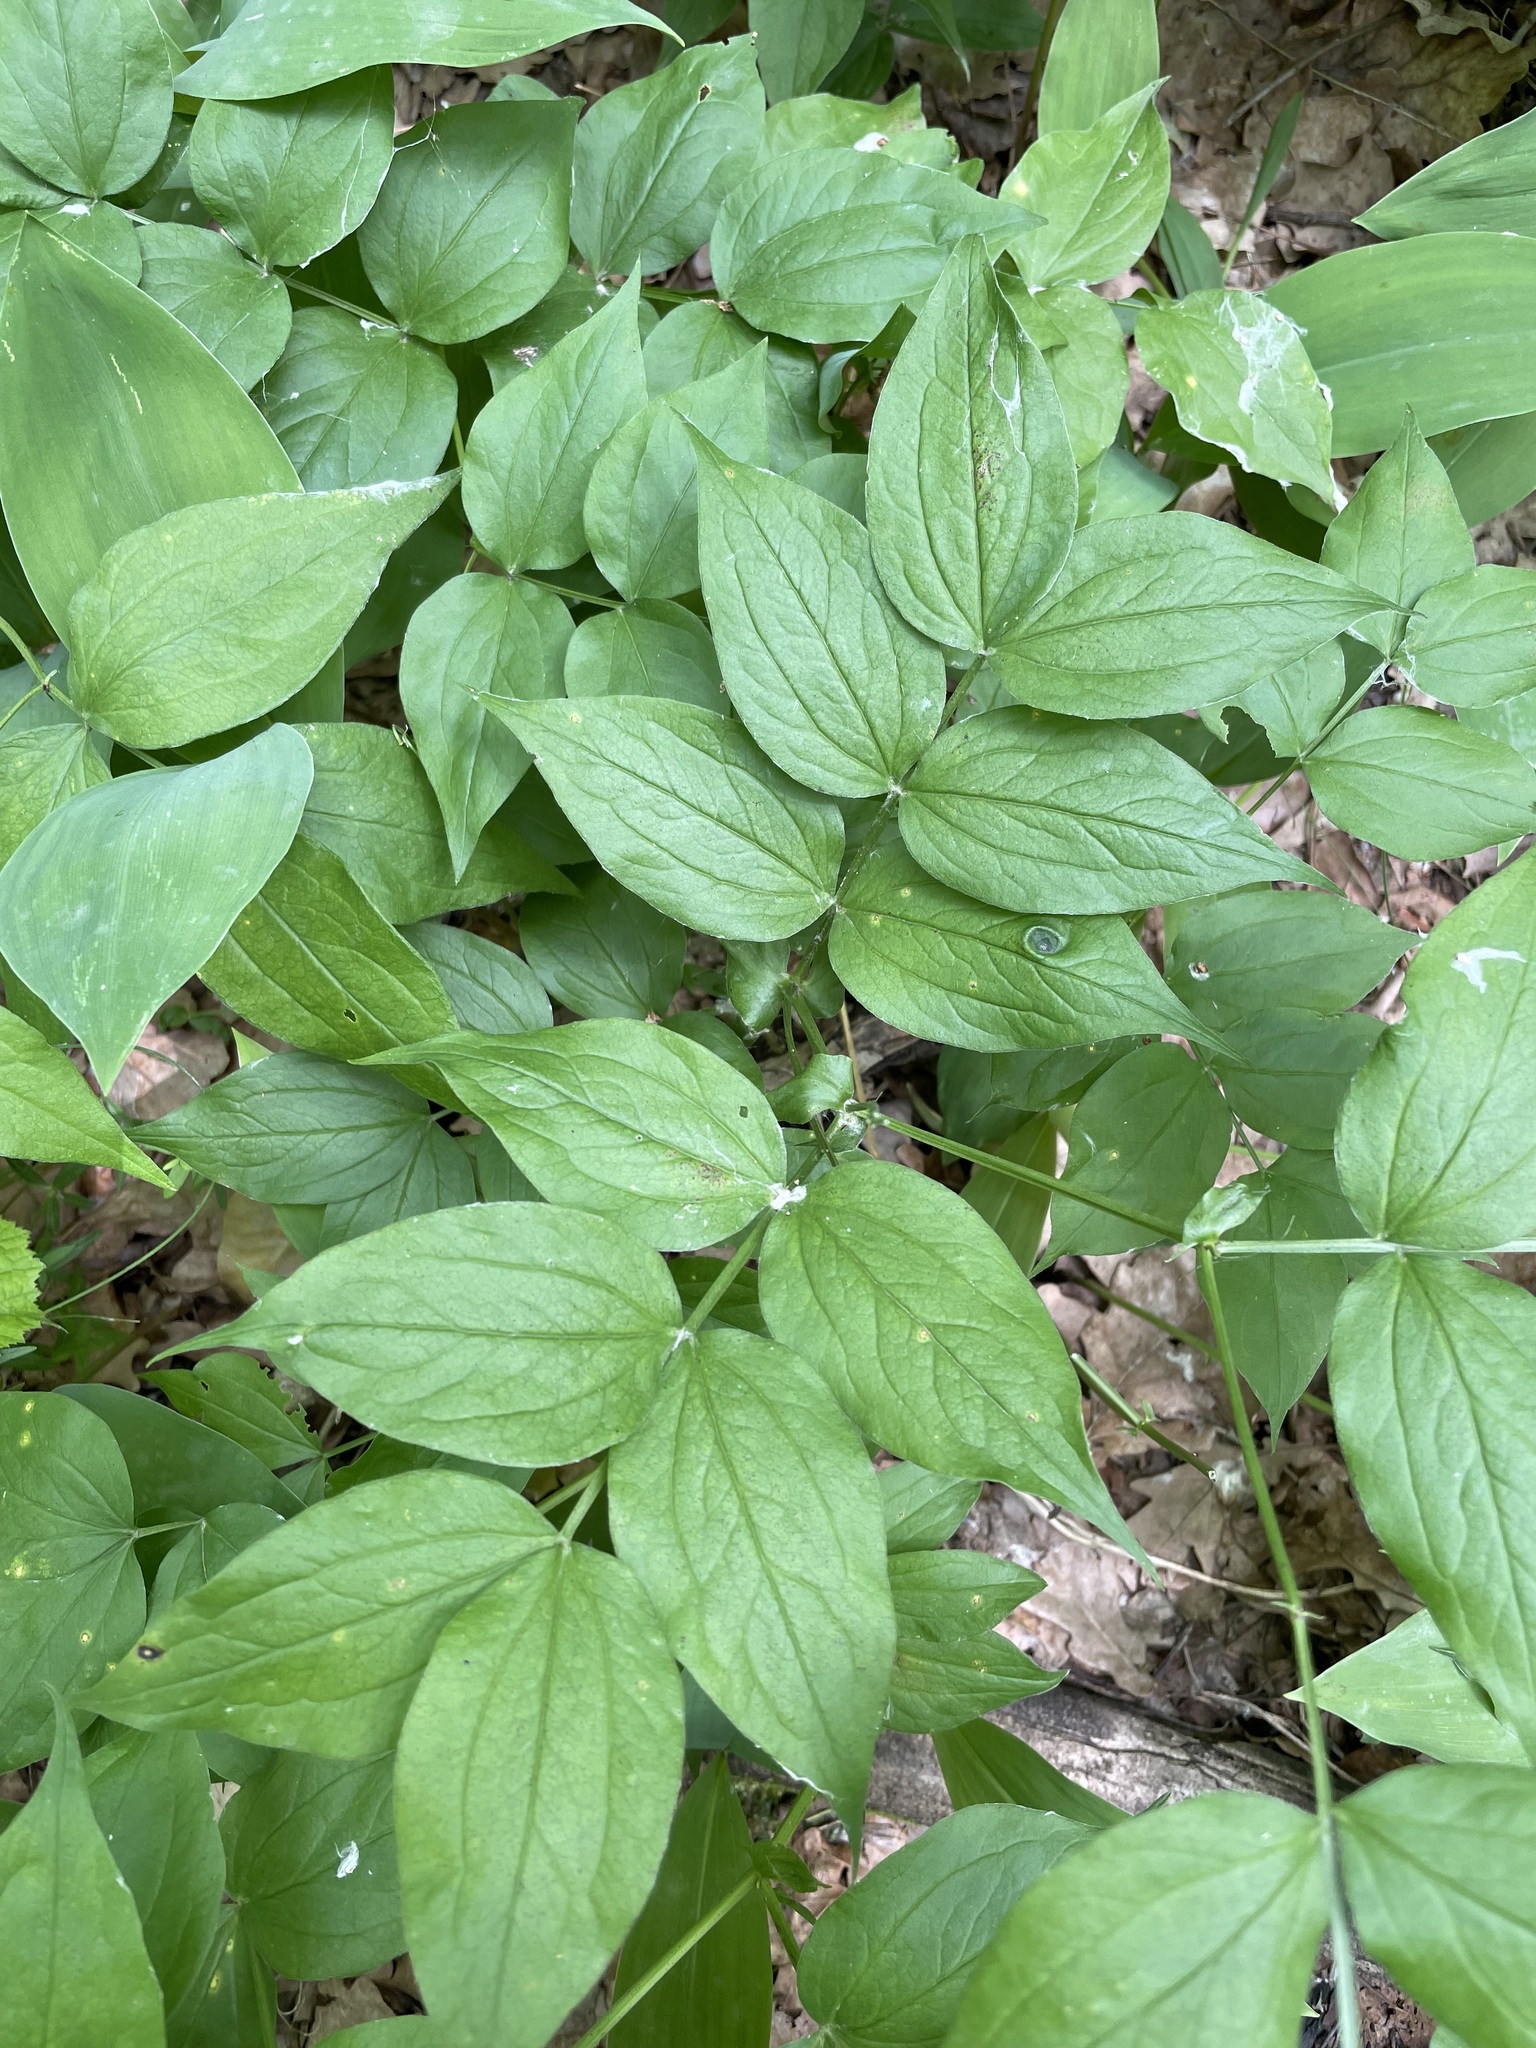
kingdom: Plantae
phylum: Tracheophyta
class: Magnoliopsida
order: Fabales
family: Fabaceae
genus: Lathyrus
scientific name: Lathyrus vernus
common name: Spring pea
